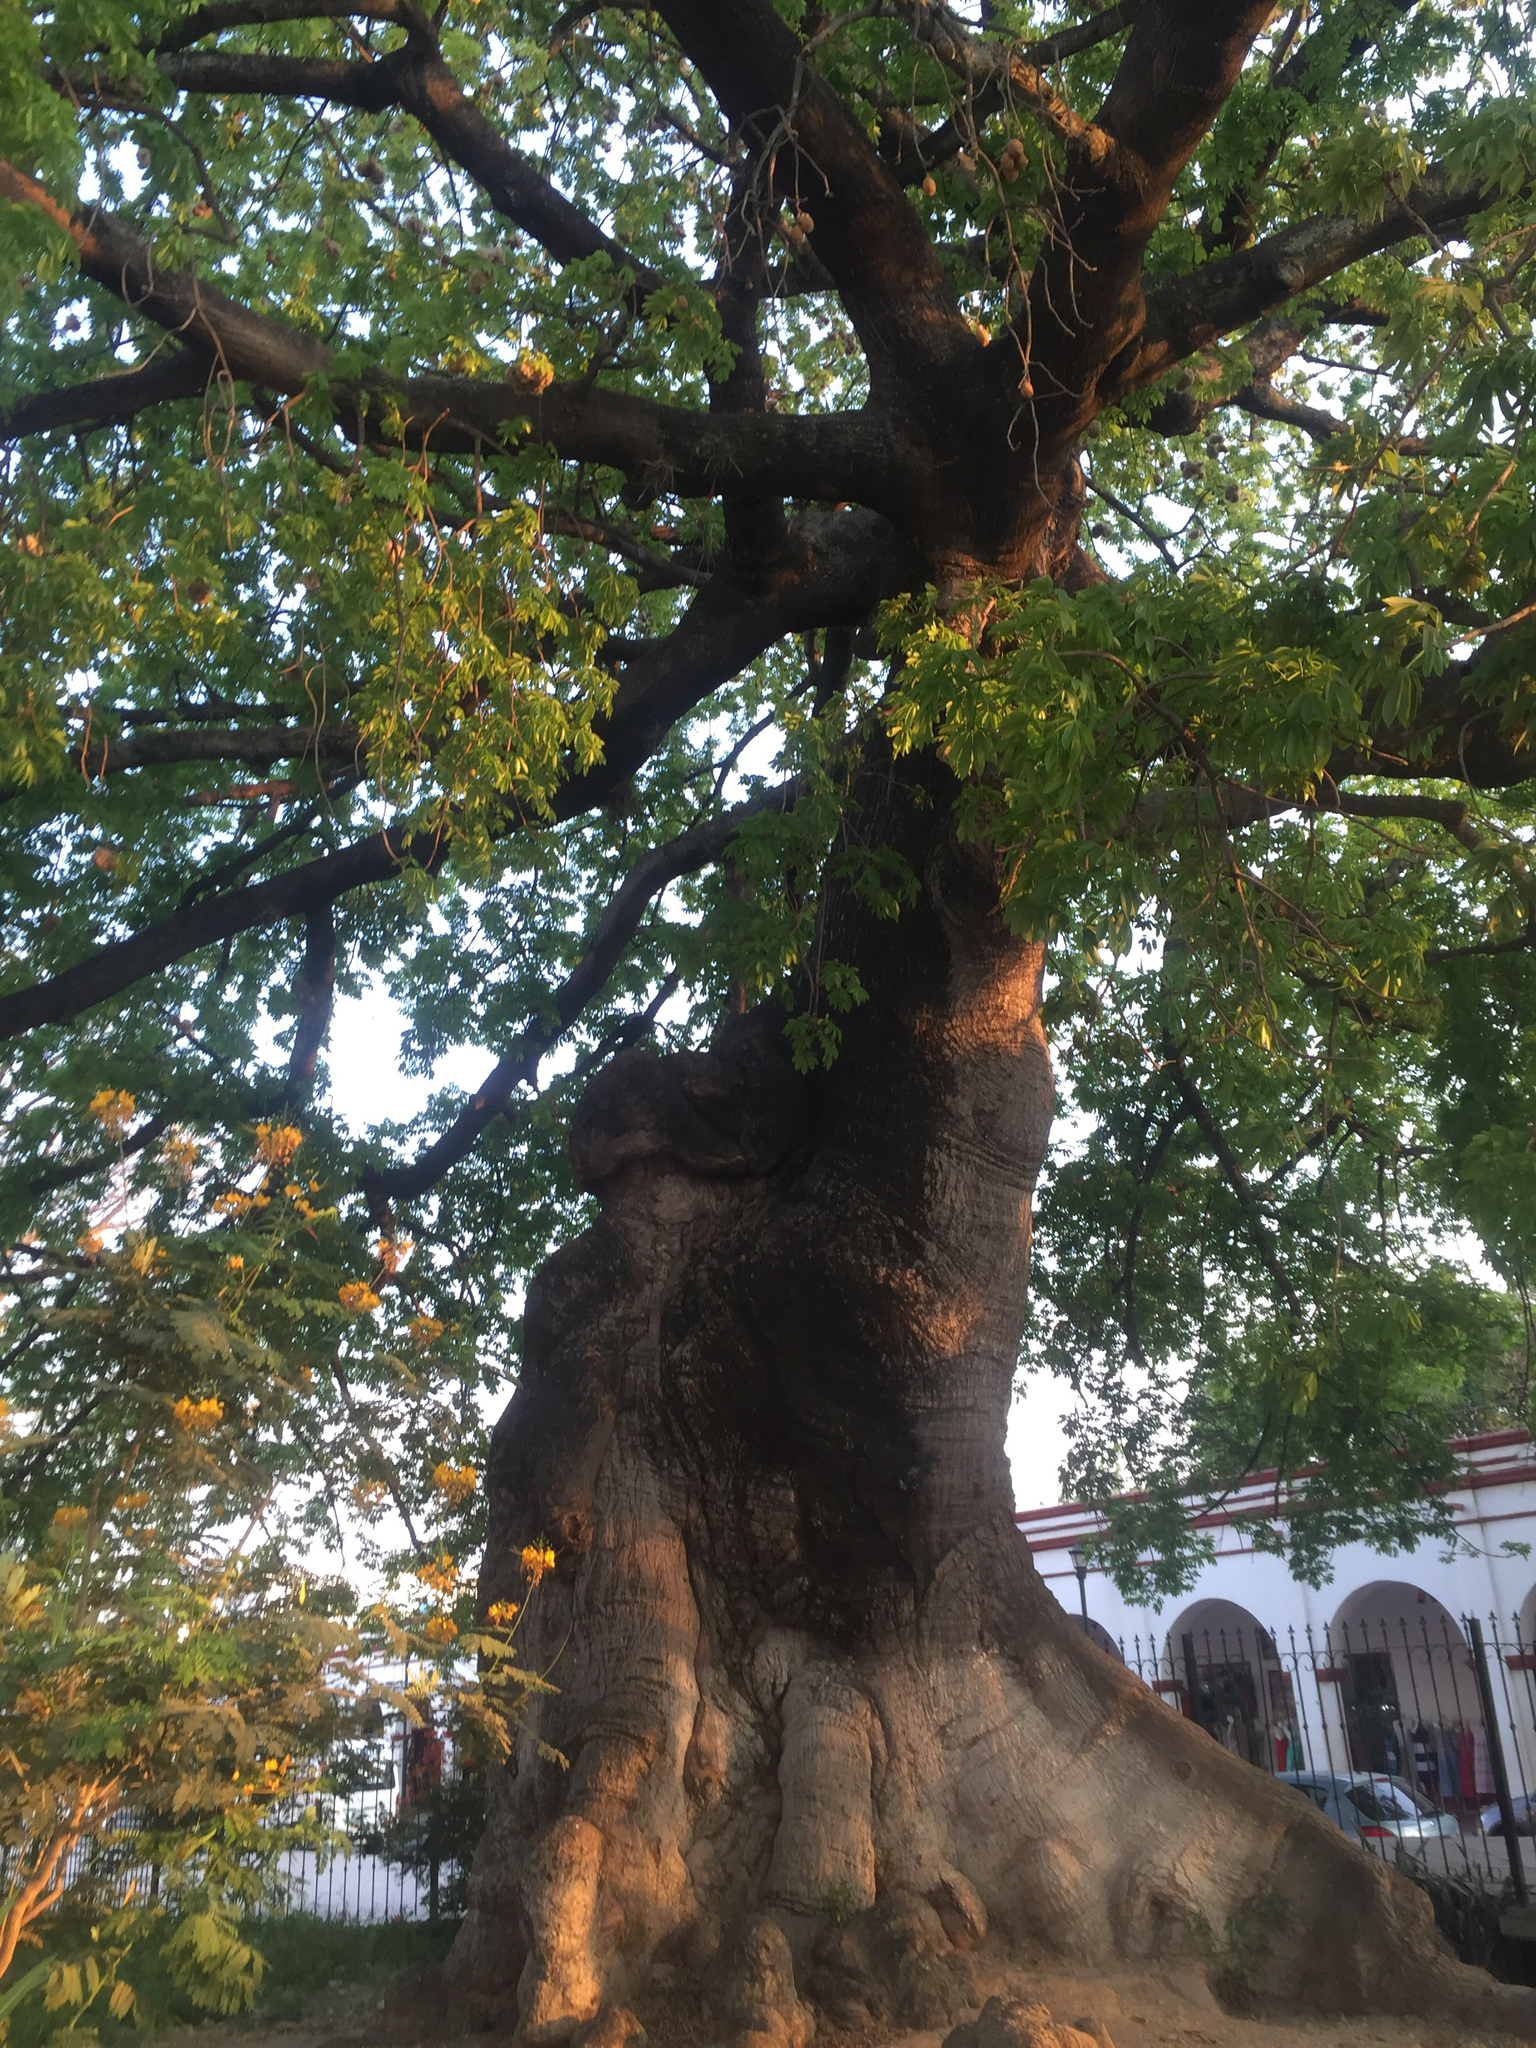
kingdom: Plantae
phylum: Tracheophyta
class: Magnoliopsida
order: Malvales
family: Malvaceae
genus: Ceiba
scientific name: Ceiba pentandra
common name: Kapok
